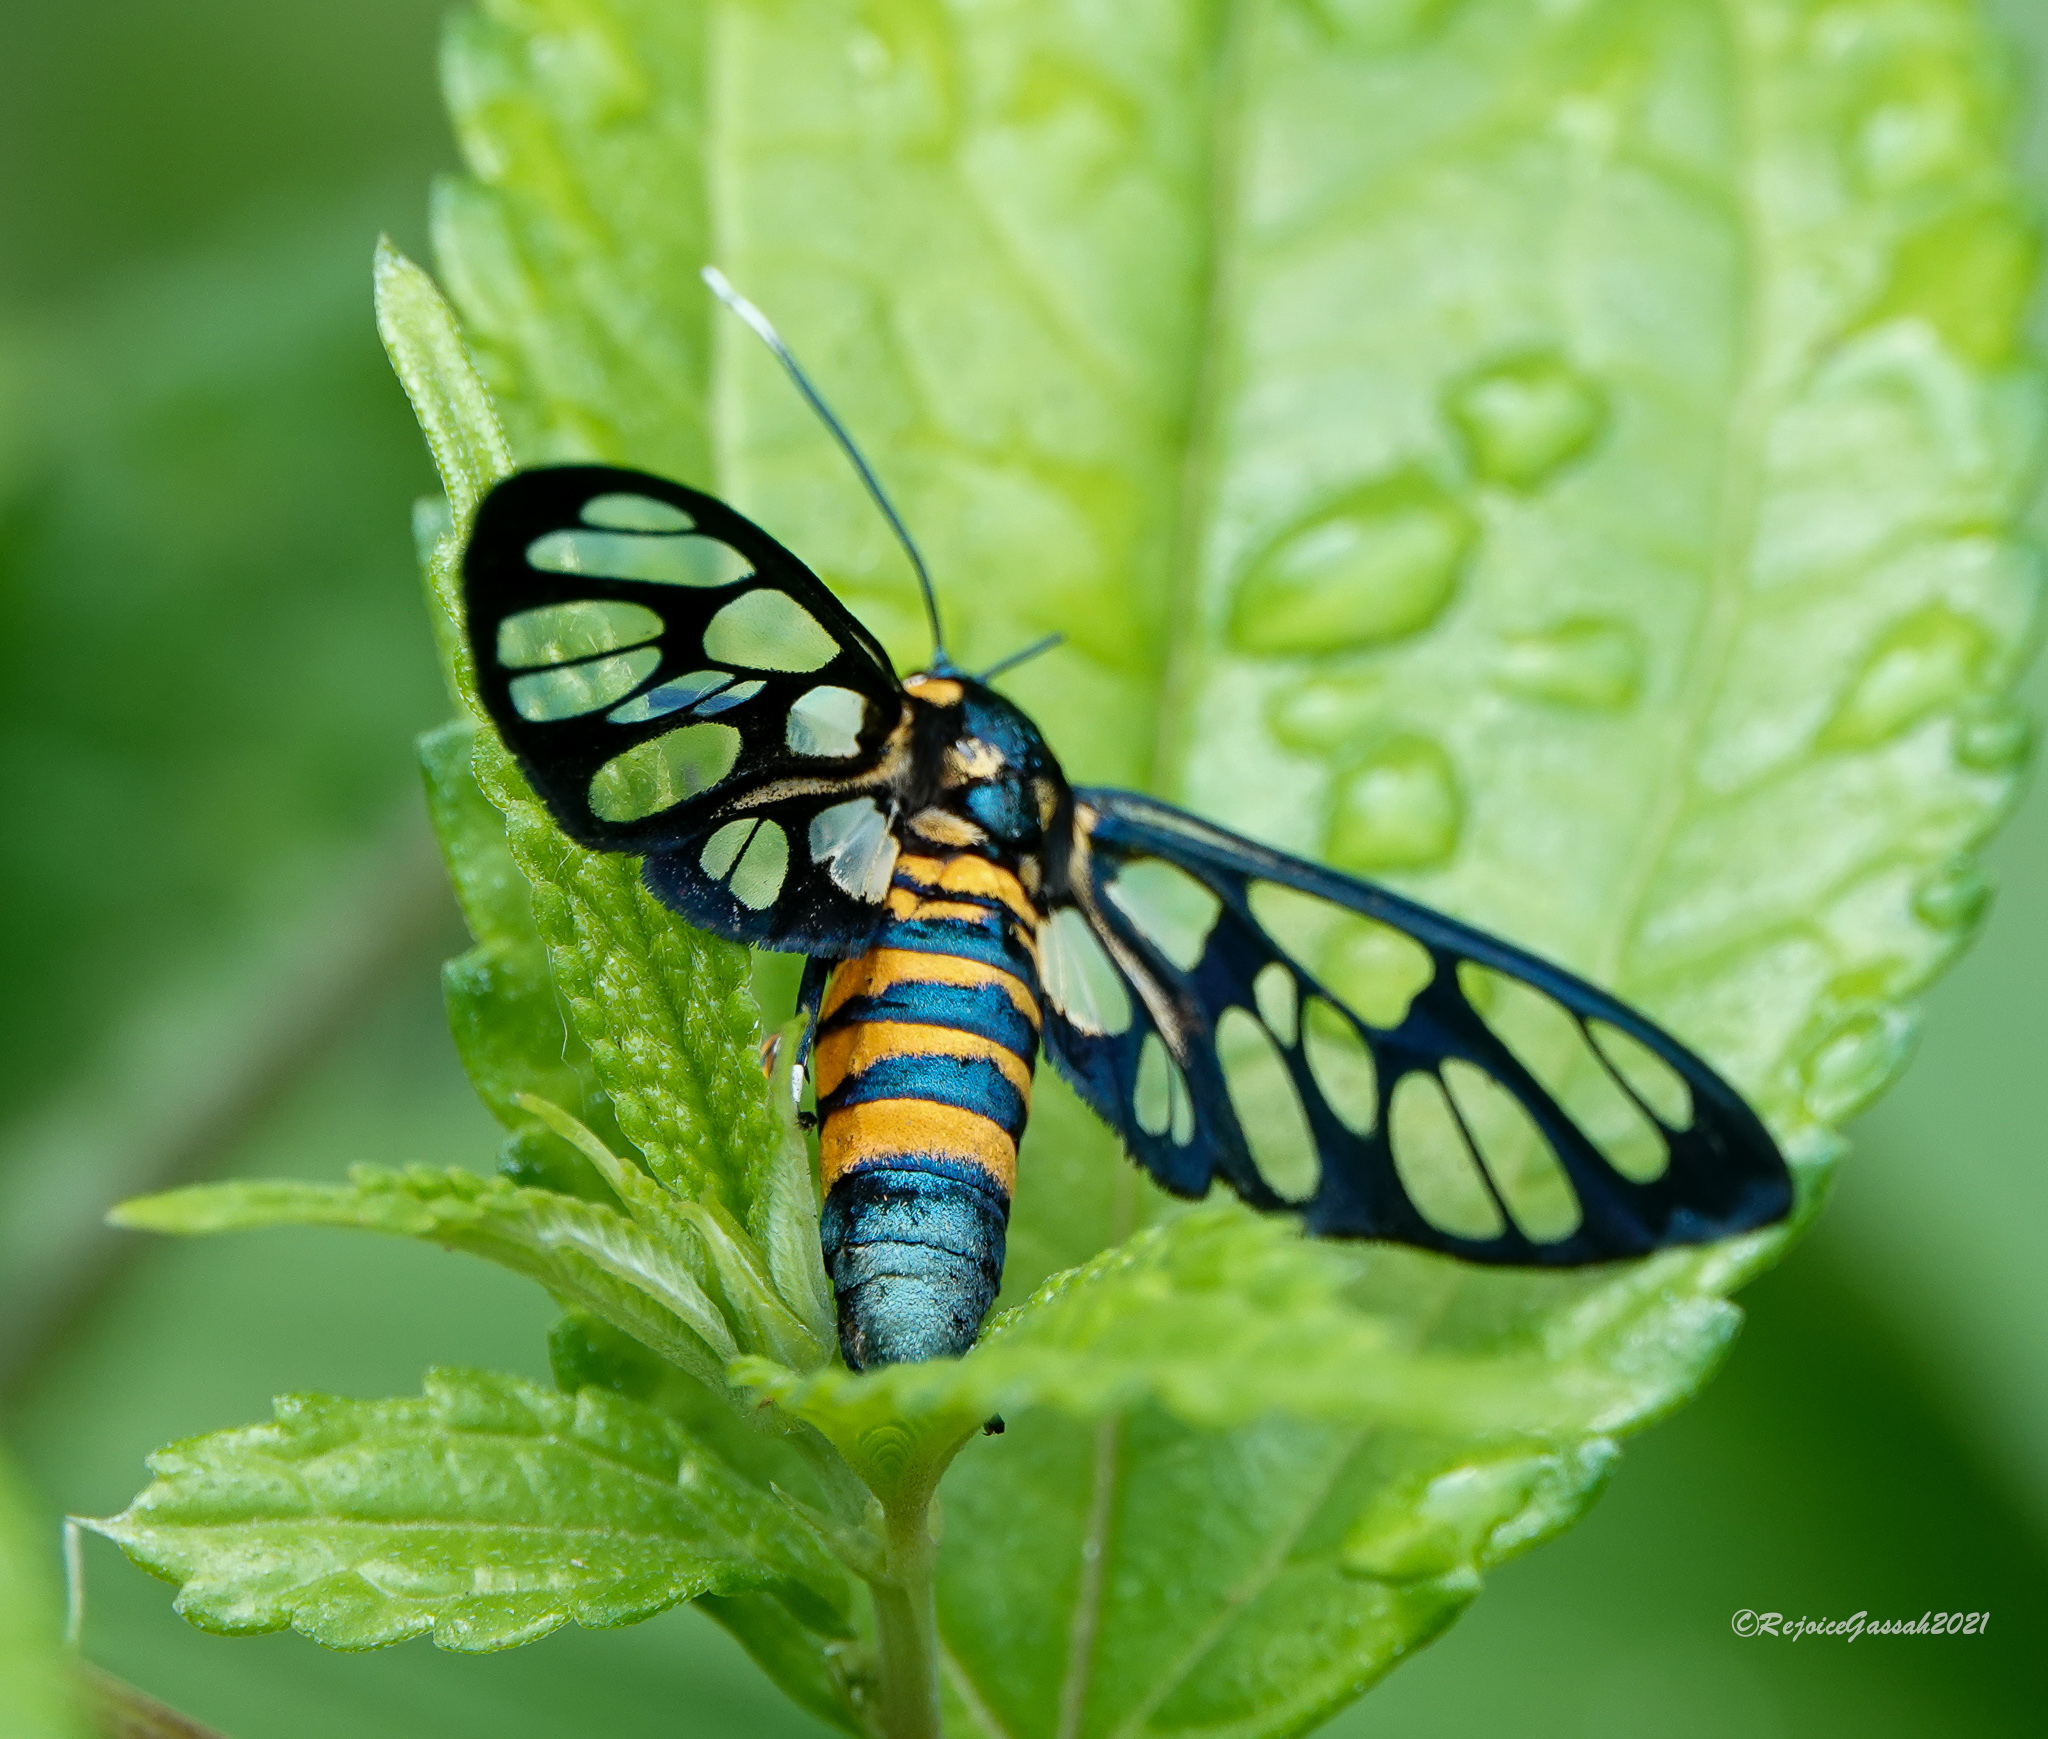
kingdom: Animalia
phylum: Arthropoda
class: Insecta
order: Lepidoptera
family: Erebidae
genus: Amata
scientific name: Amata divisa
